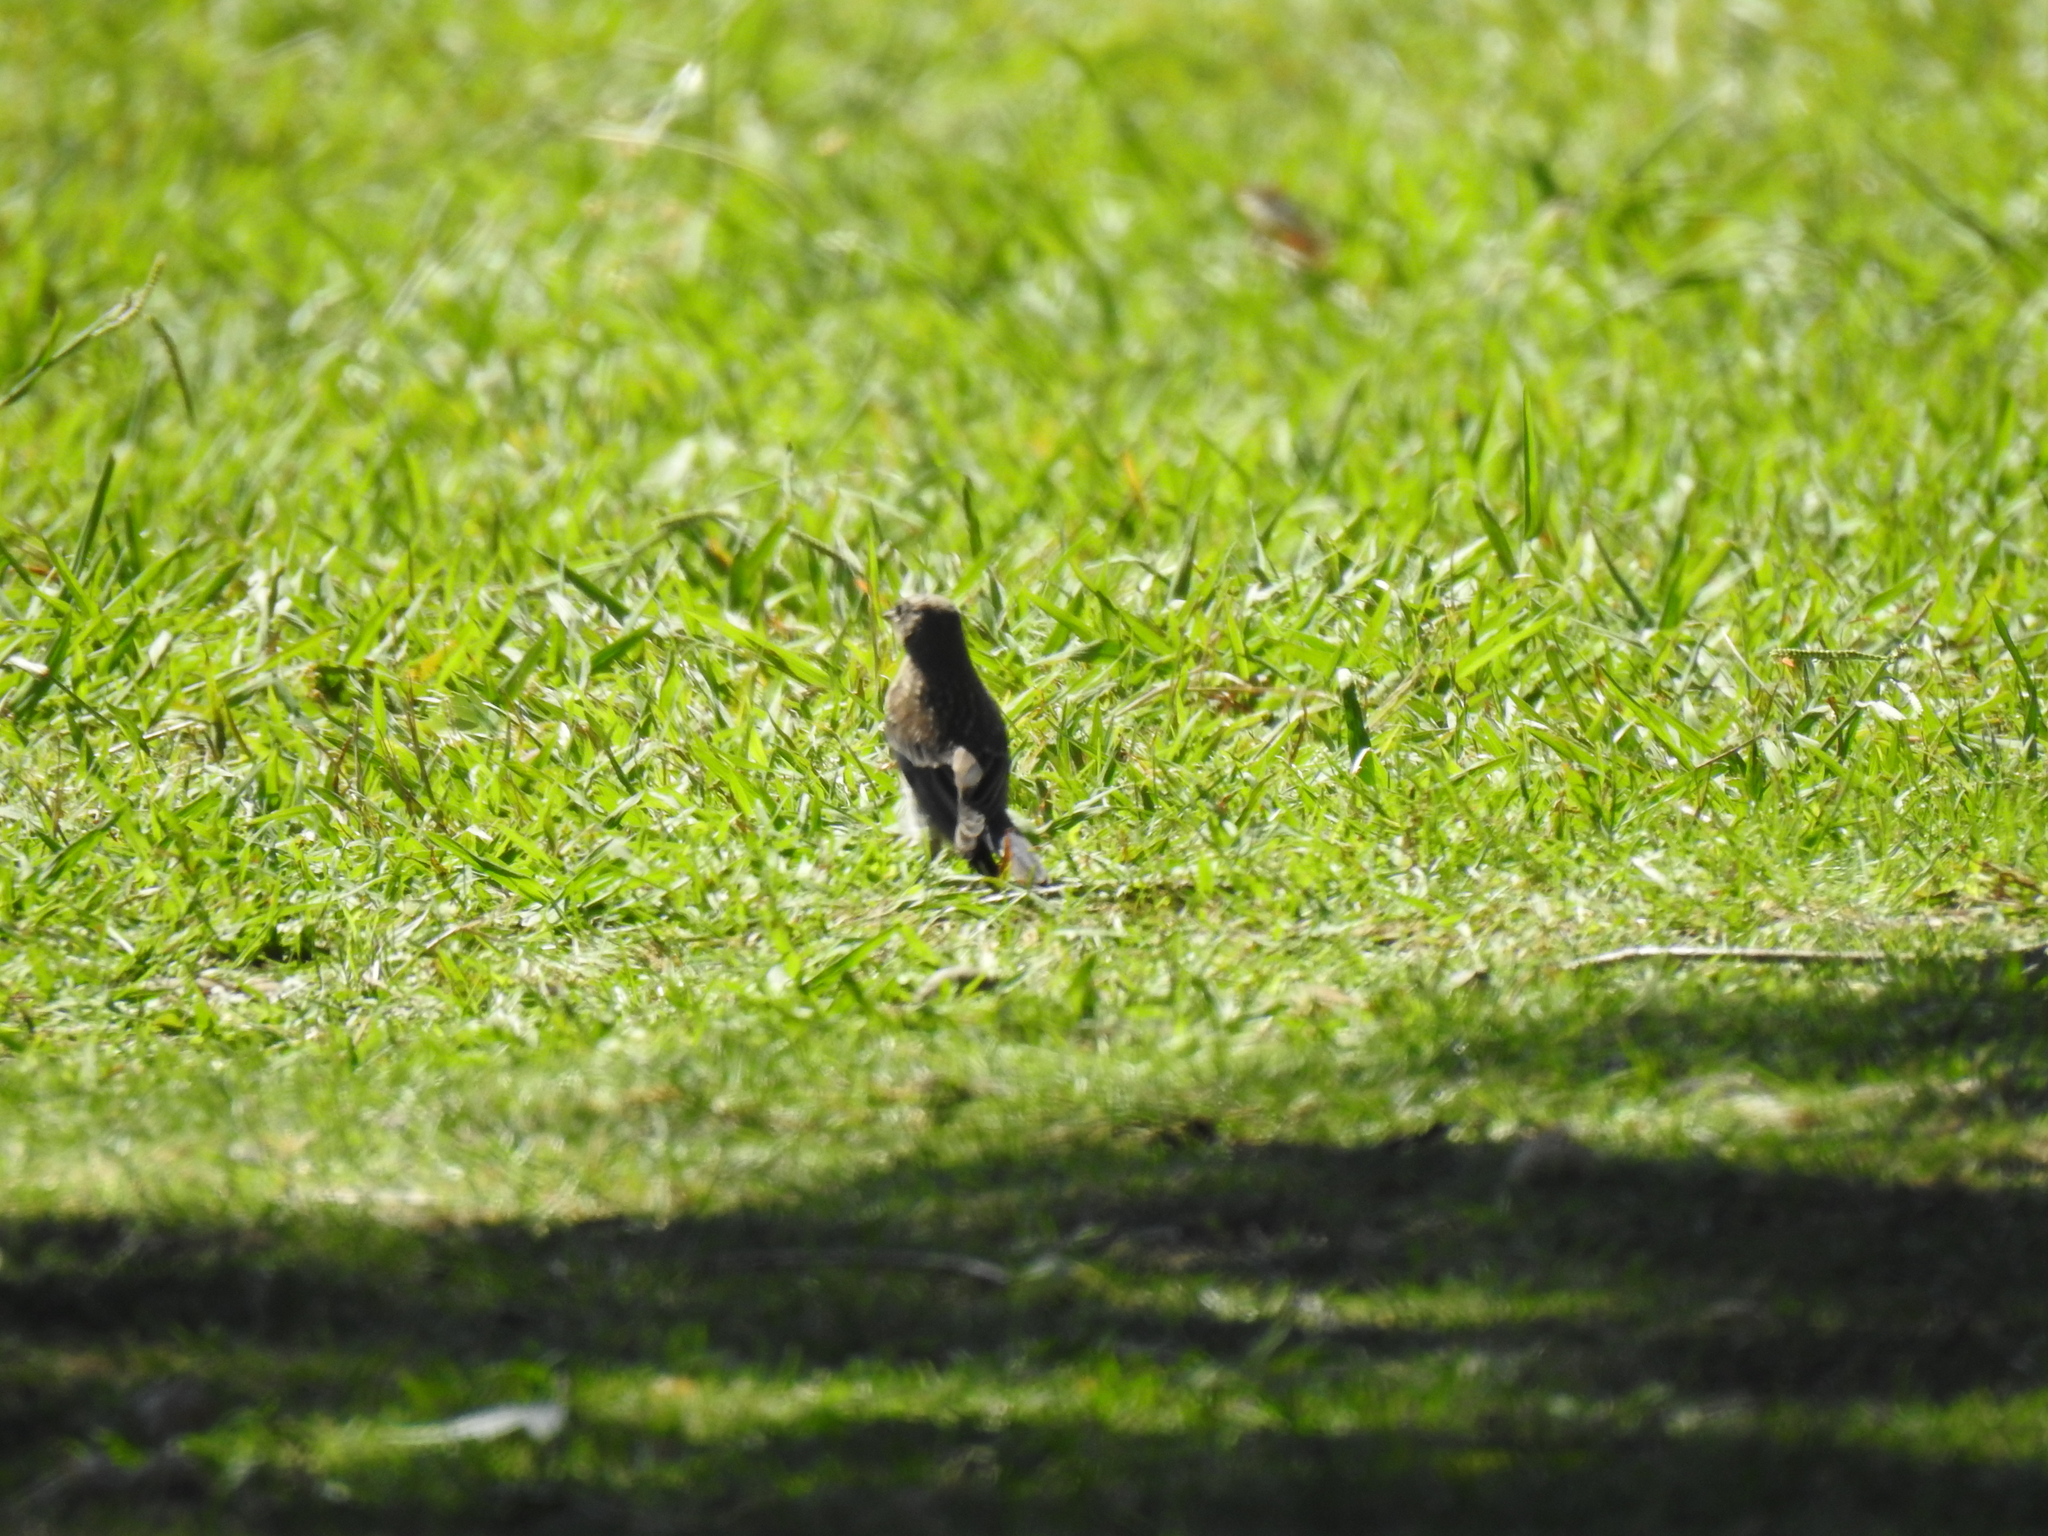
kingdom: Animalia
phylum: Chordata
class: Aves
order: Passeriformes
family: Turdidae
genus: Sialia
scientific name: Sialia mexicana
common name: Western bluebird
